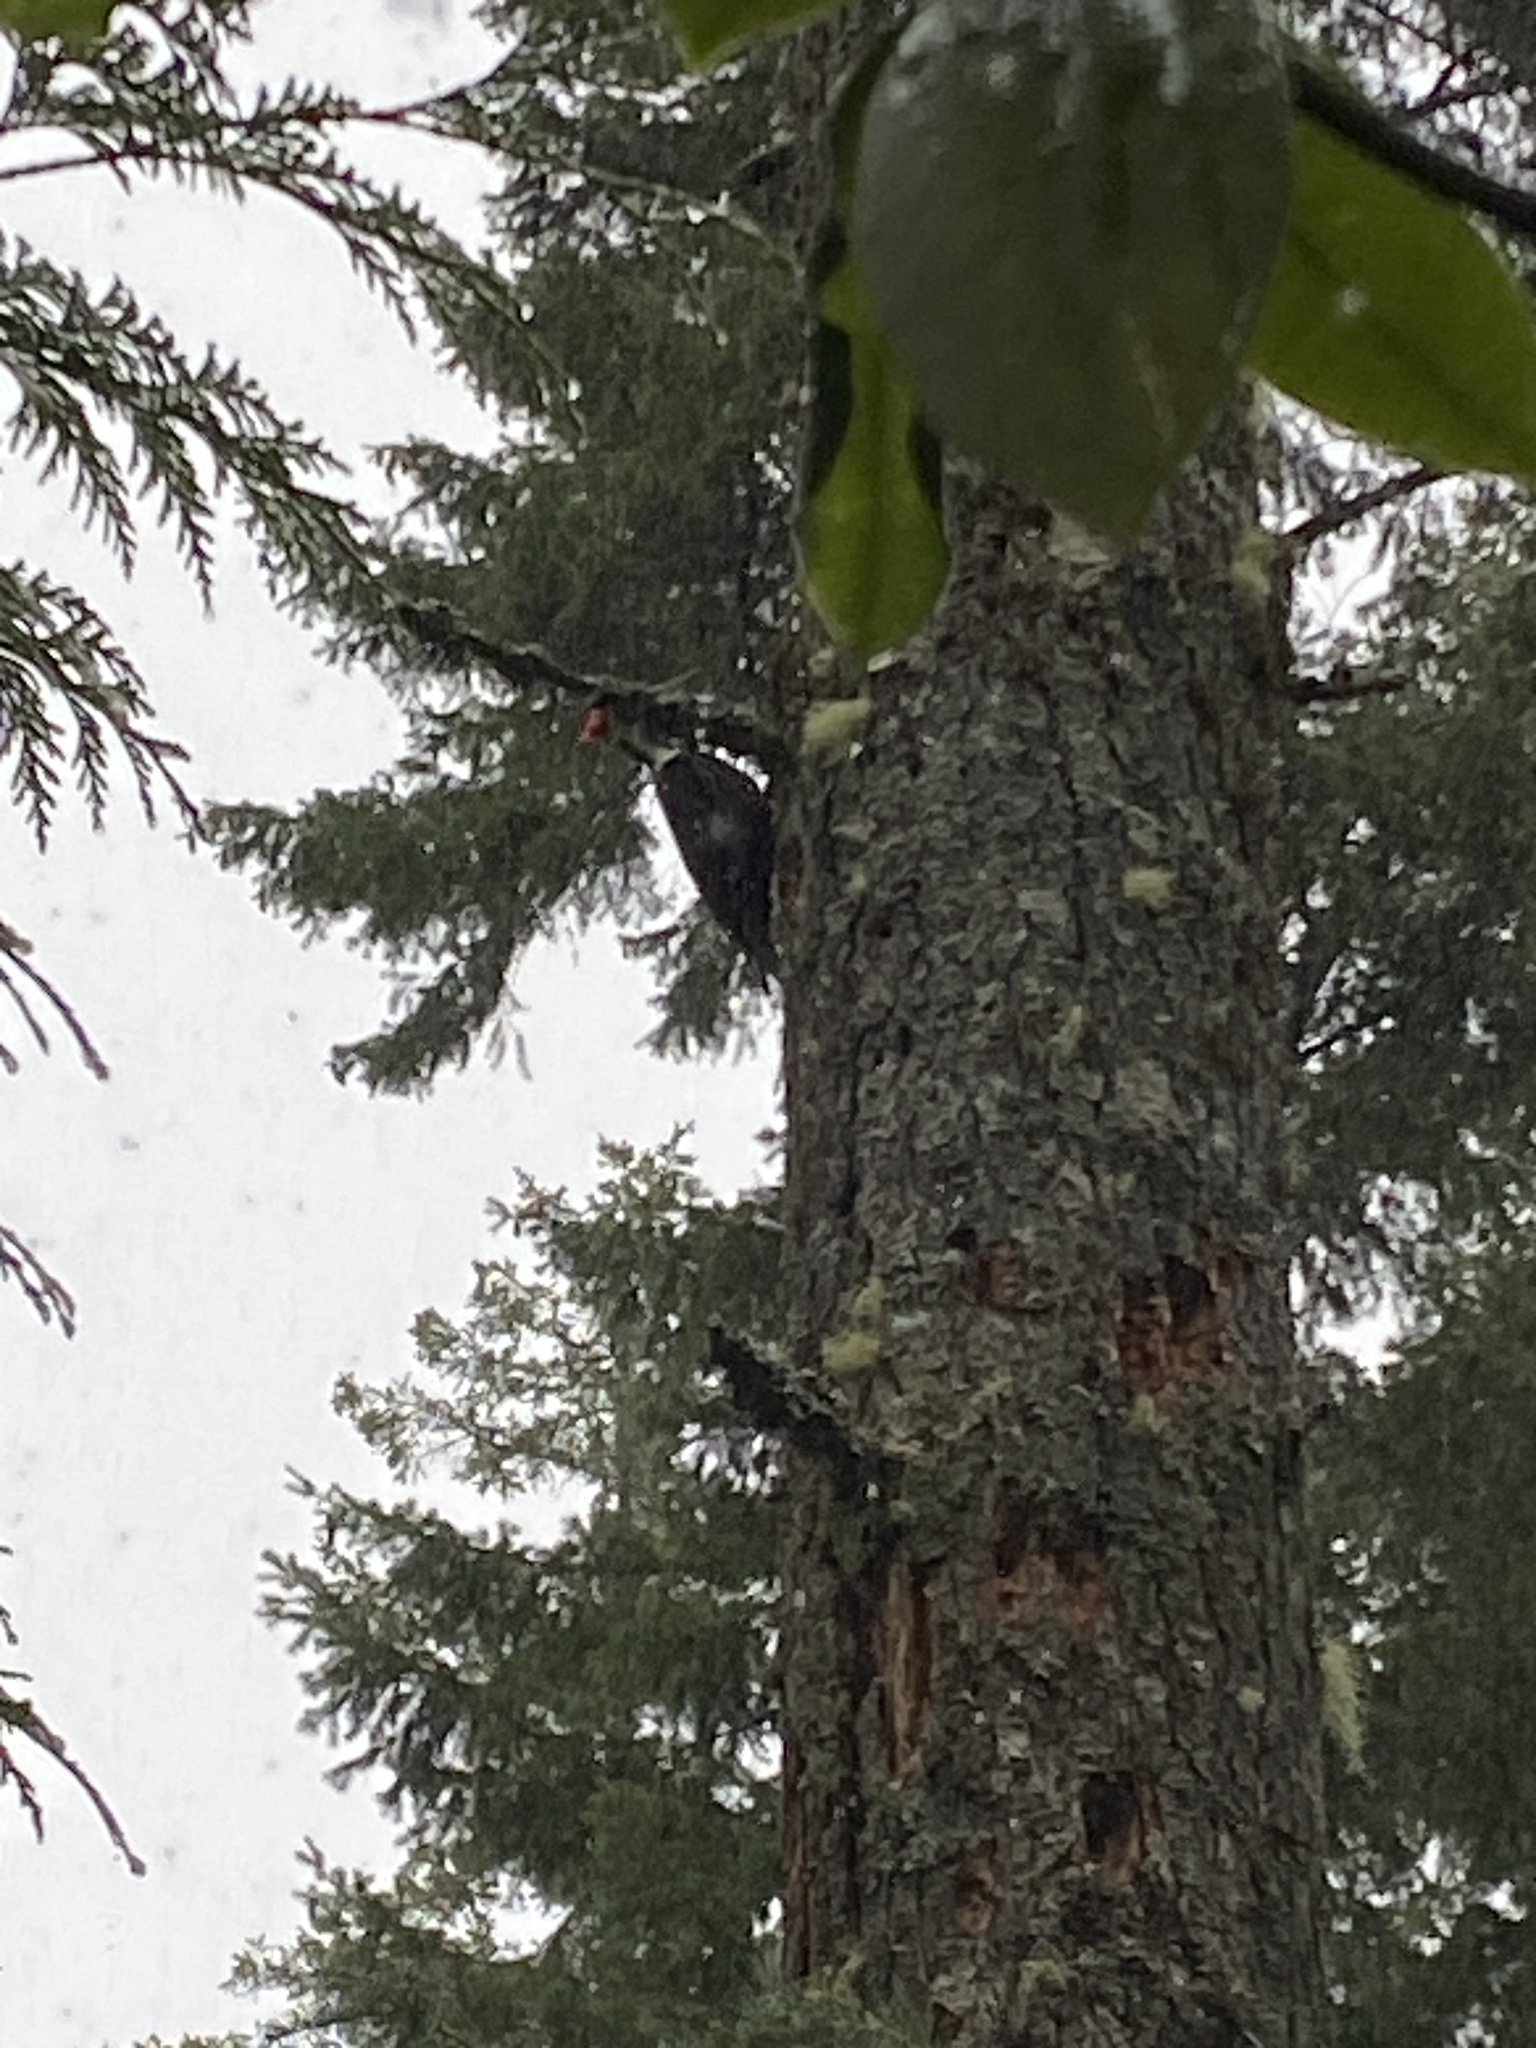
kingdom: Animalia
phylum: Chordata
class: Aves
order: Piciformes
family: Picidae
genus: Dryocopus
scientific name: Dryocopus pileatus
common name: Pileated woodpecker
